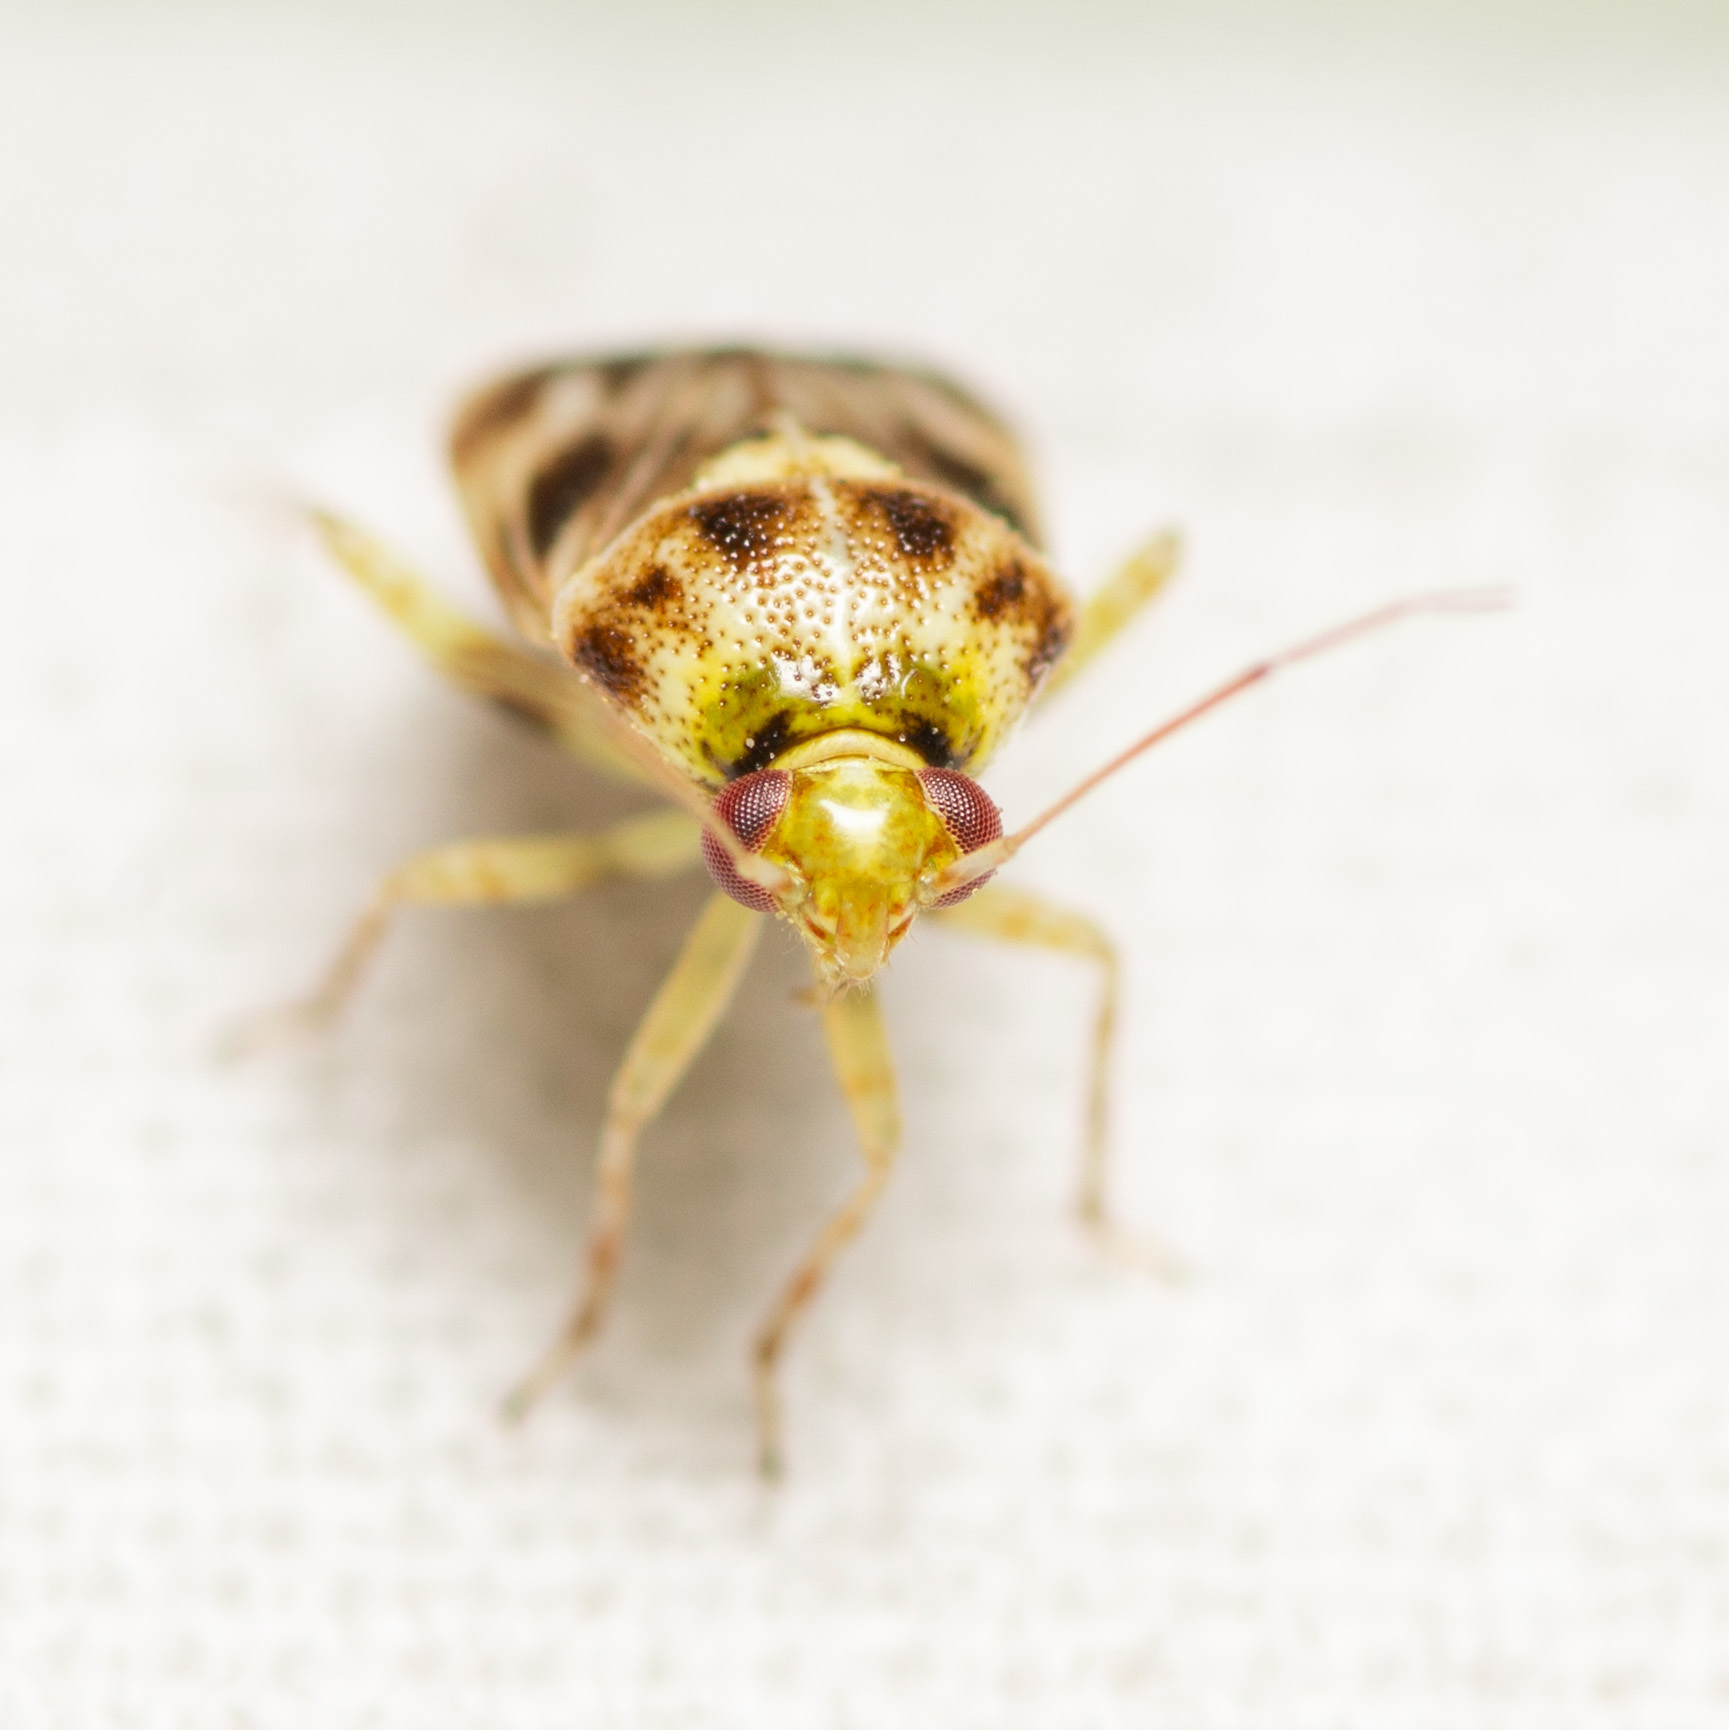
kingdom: Animalia
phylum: Arthropoda
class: Insecta
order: Hemiptera
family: Miridae
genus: Tropidosteptes
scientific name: Tropidosteptes quercicola
